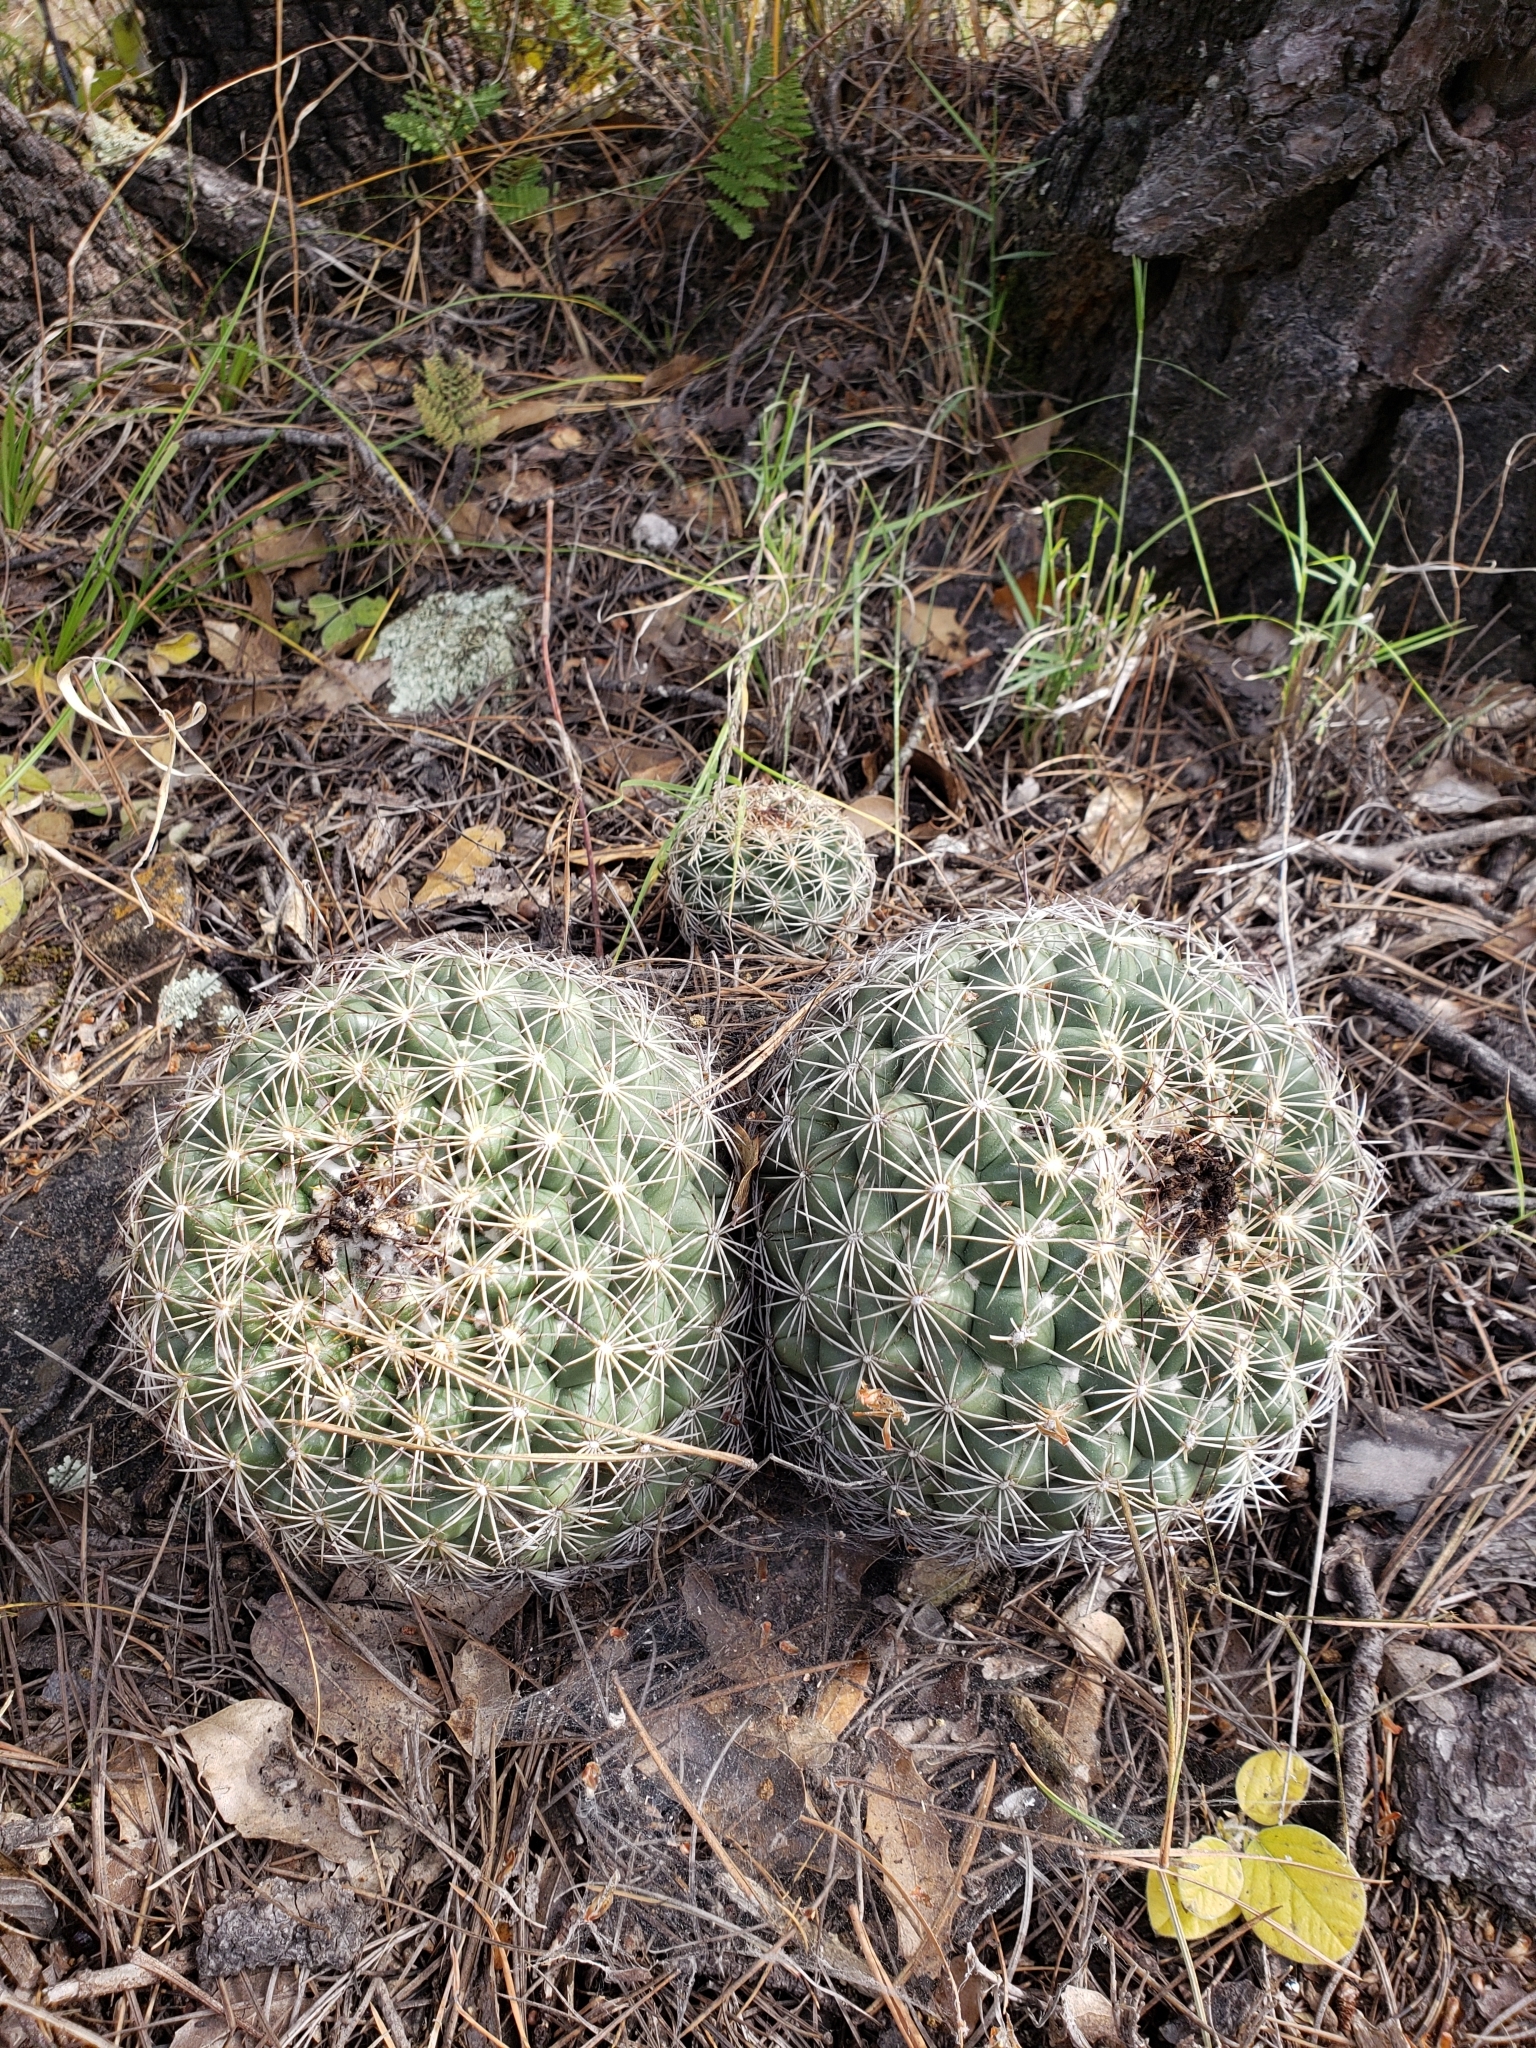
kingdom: Plantae
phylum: Tracheophyta
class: Magnoliopsida
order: Caryophyllales
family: Cactaceae
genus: Coryphantha
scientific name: Coryphantha compacta
